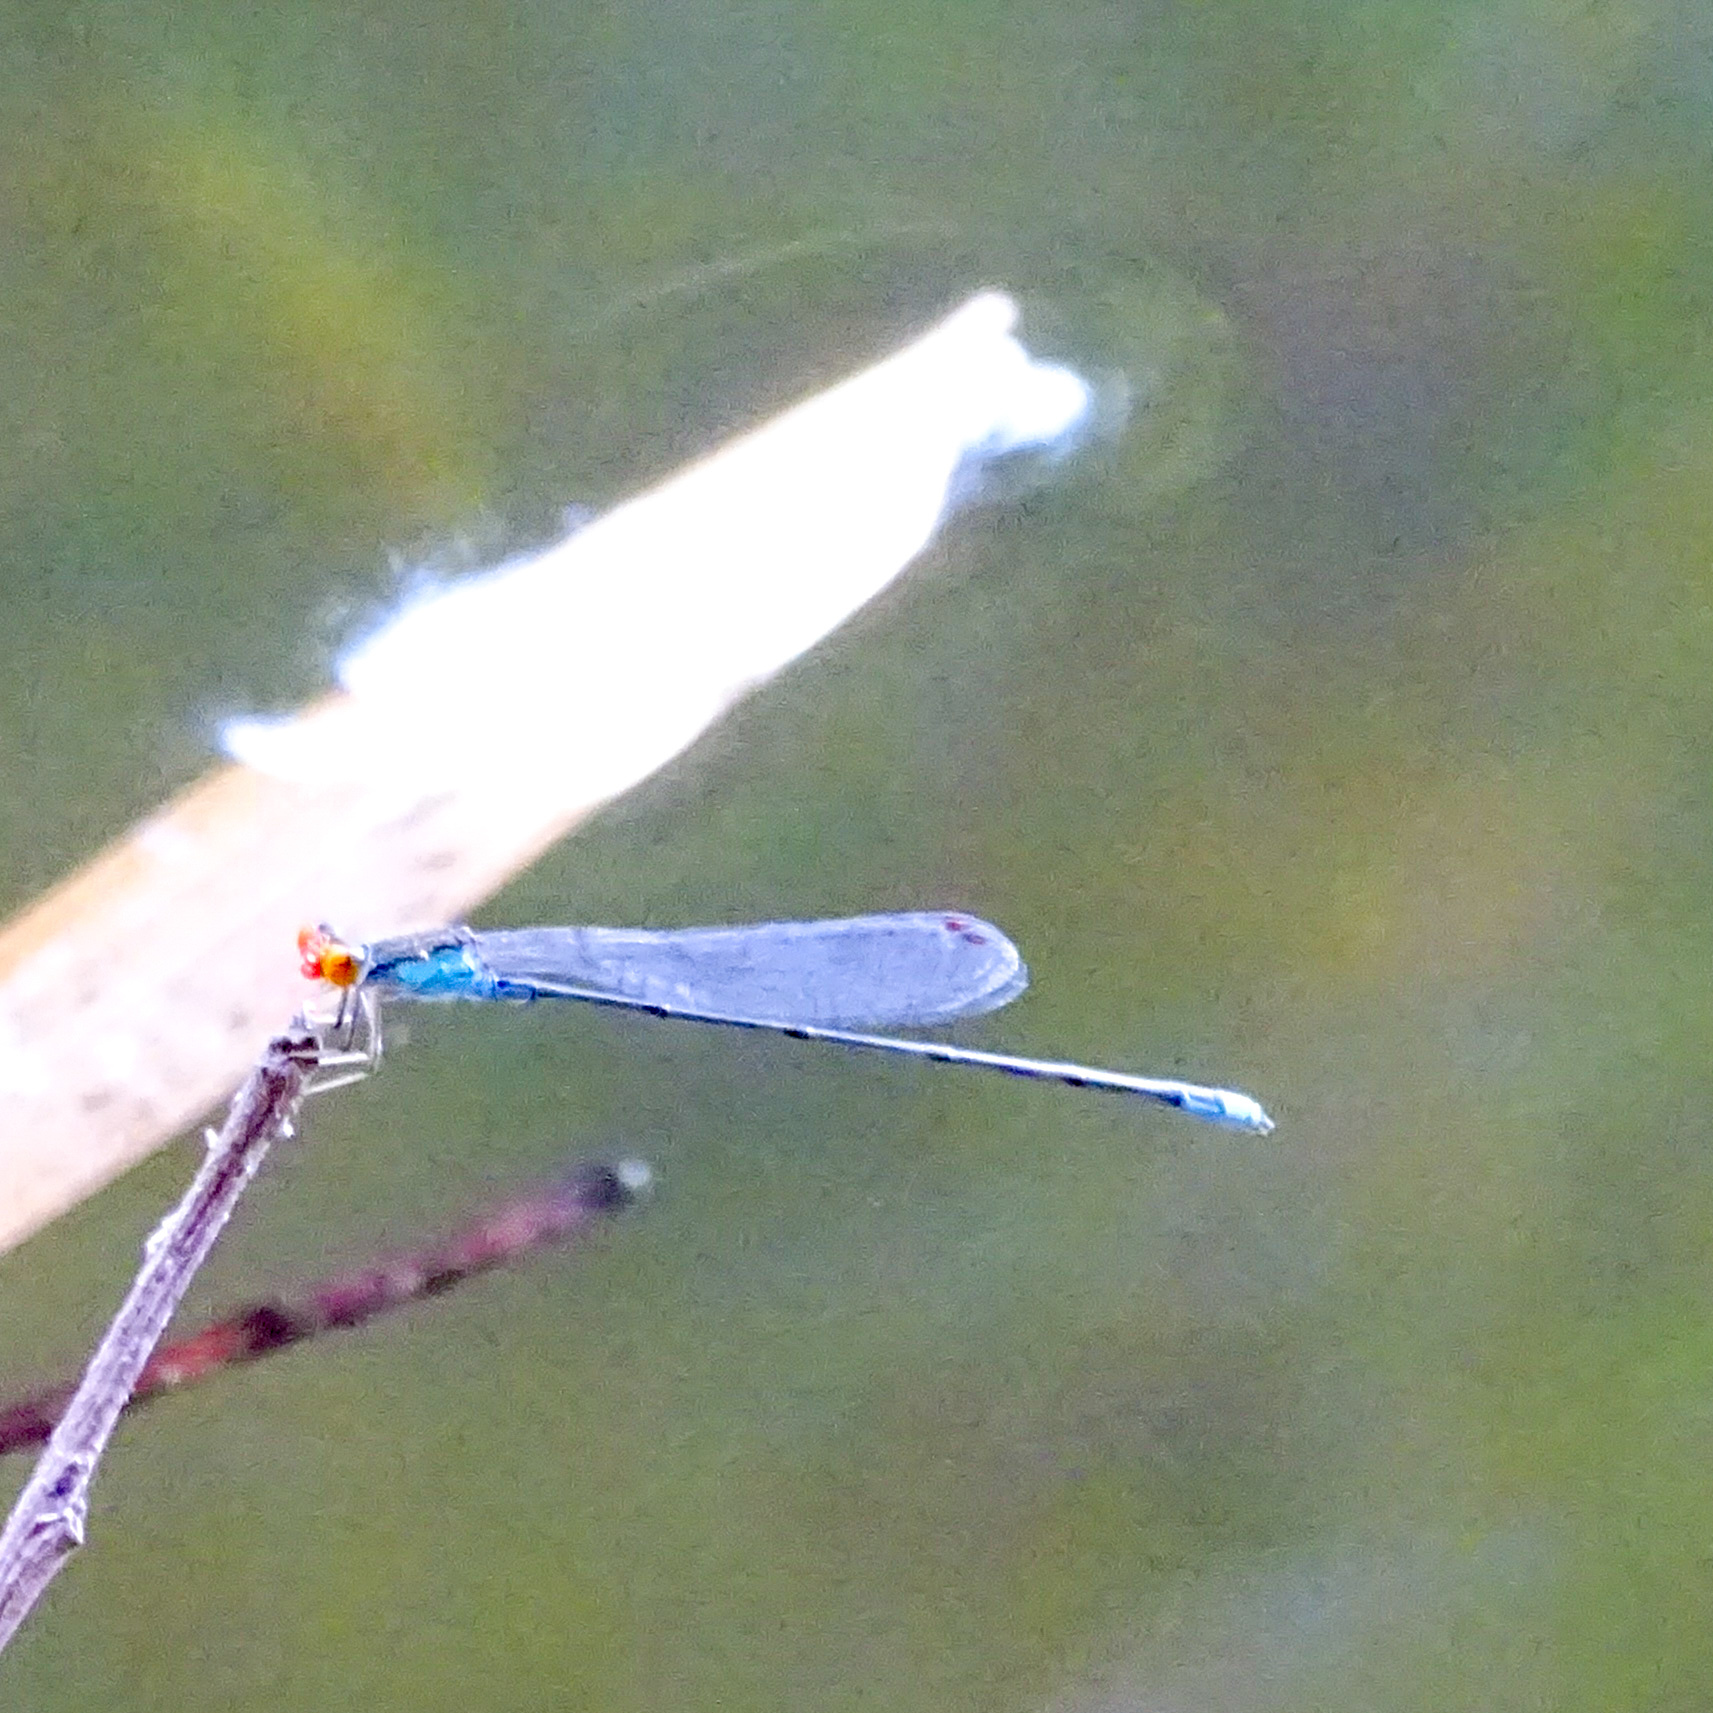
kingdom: Animalia
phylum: Arthropoda
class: Insecta
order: Odonata
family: Coenagrionidae
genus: Pseudagrion
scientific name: Pseudagrion rubriceps
